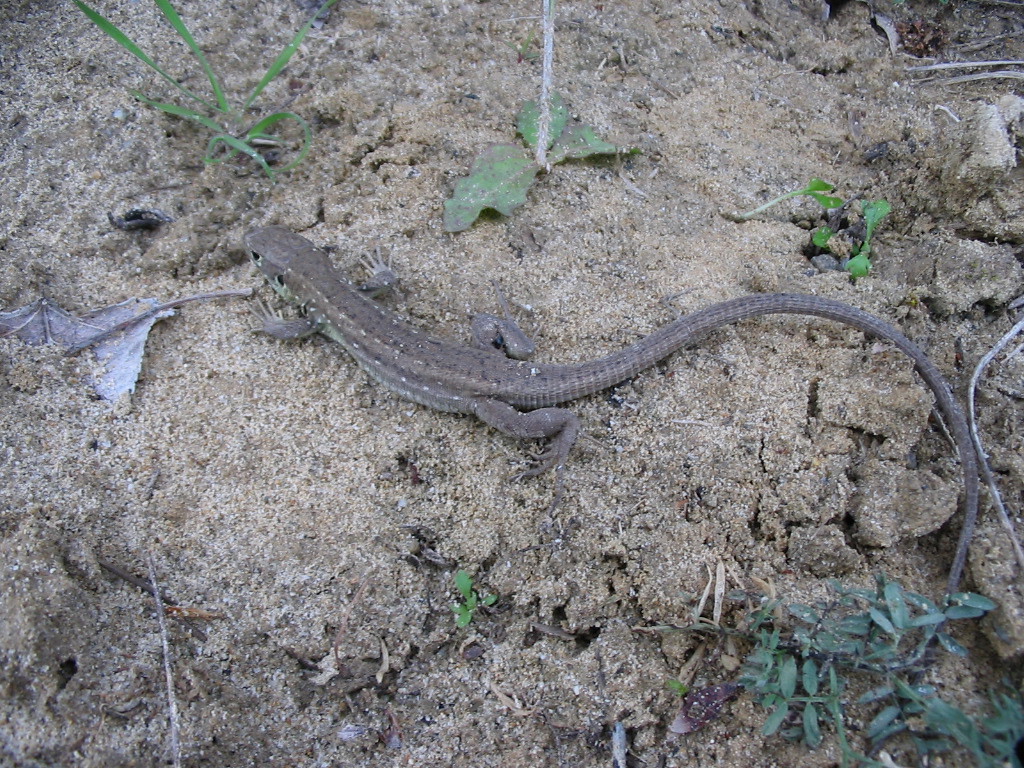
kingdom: Animalia
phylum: Chordata
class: Squamata
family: Lacertidae
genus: Lacerta
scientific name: Lacerta viridis
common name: European green lizard
